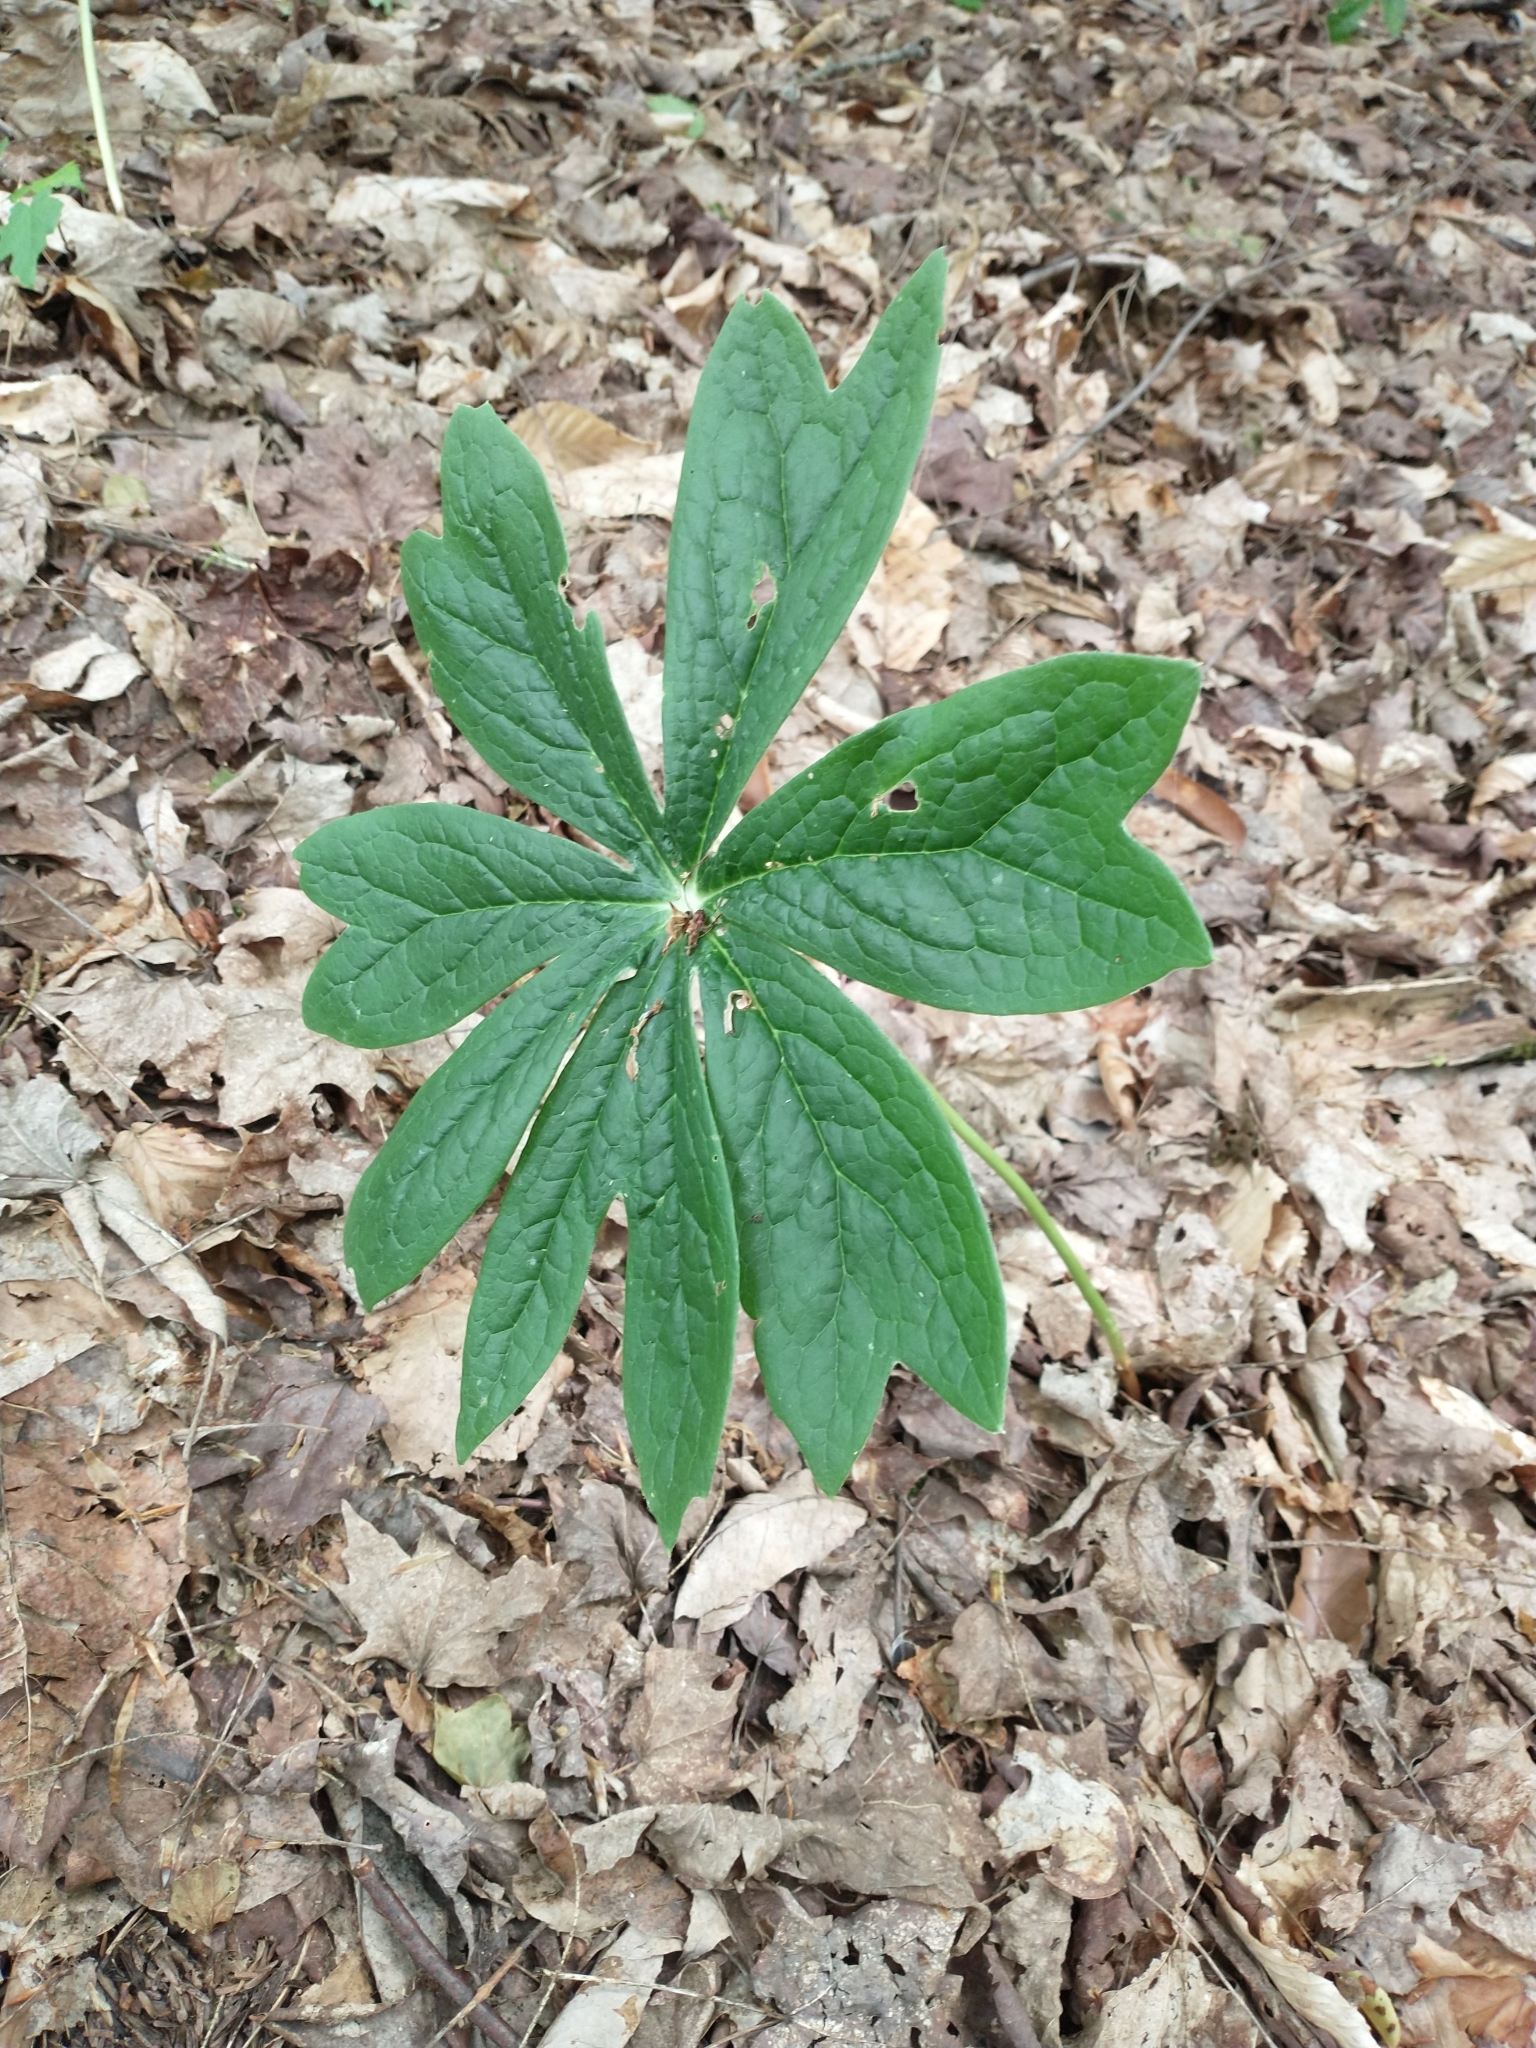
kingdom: Plantae
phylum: Tracheophyta
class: Magnoliopsida
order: Ranunculales
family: Berberidaceae
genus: Podophyllum
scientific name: Podophyllum peltatum
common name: Wild mandrake
